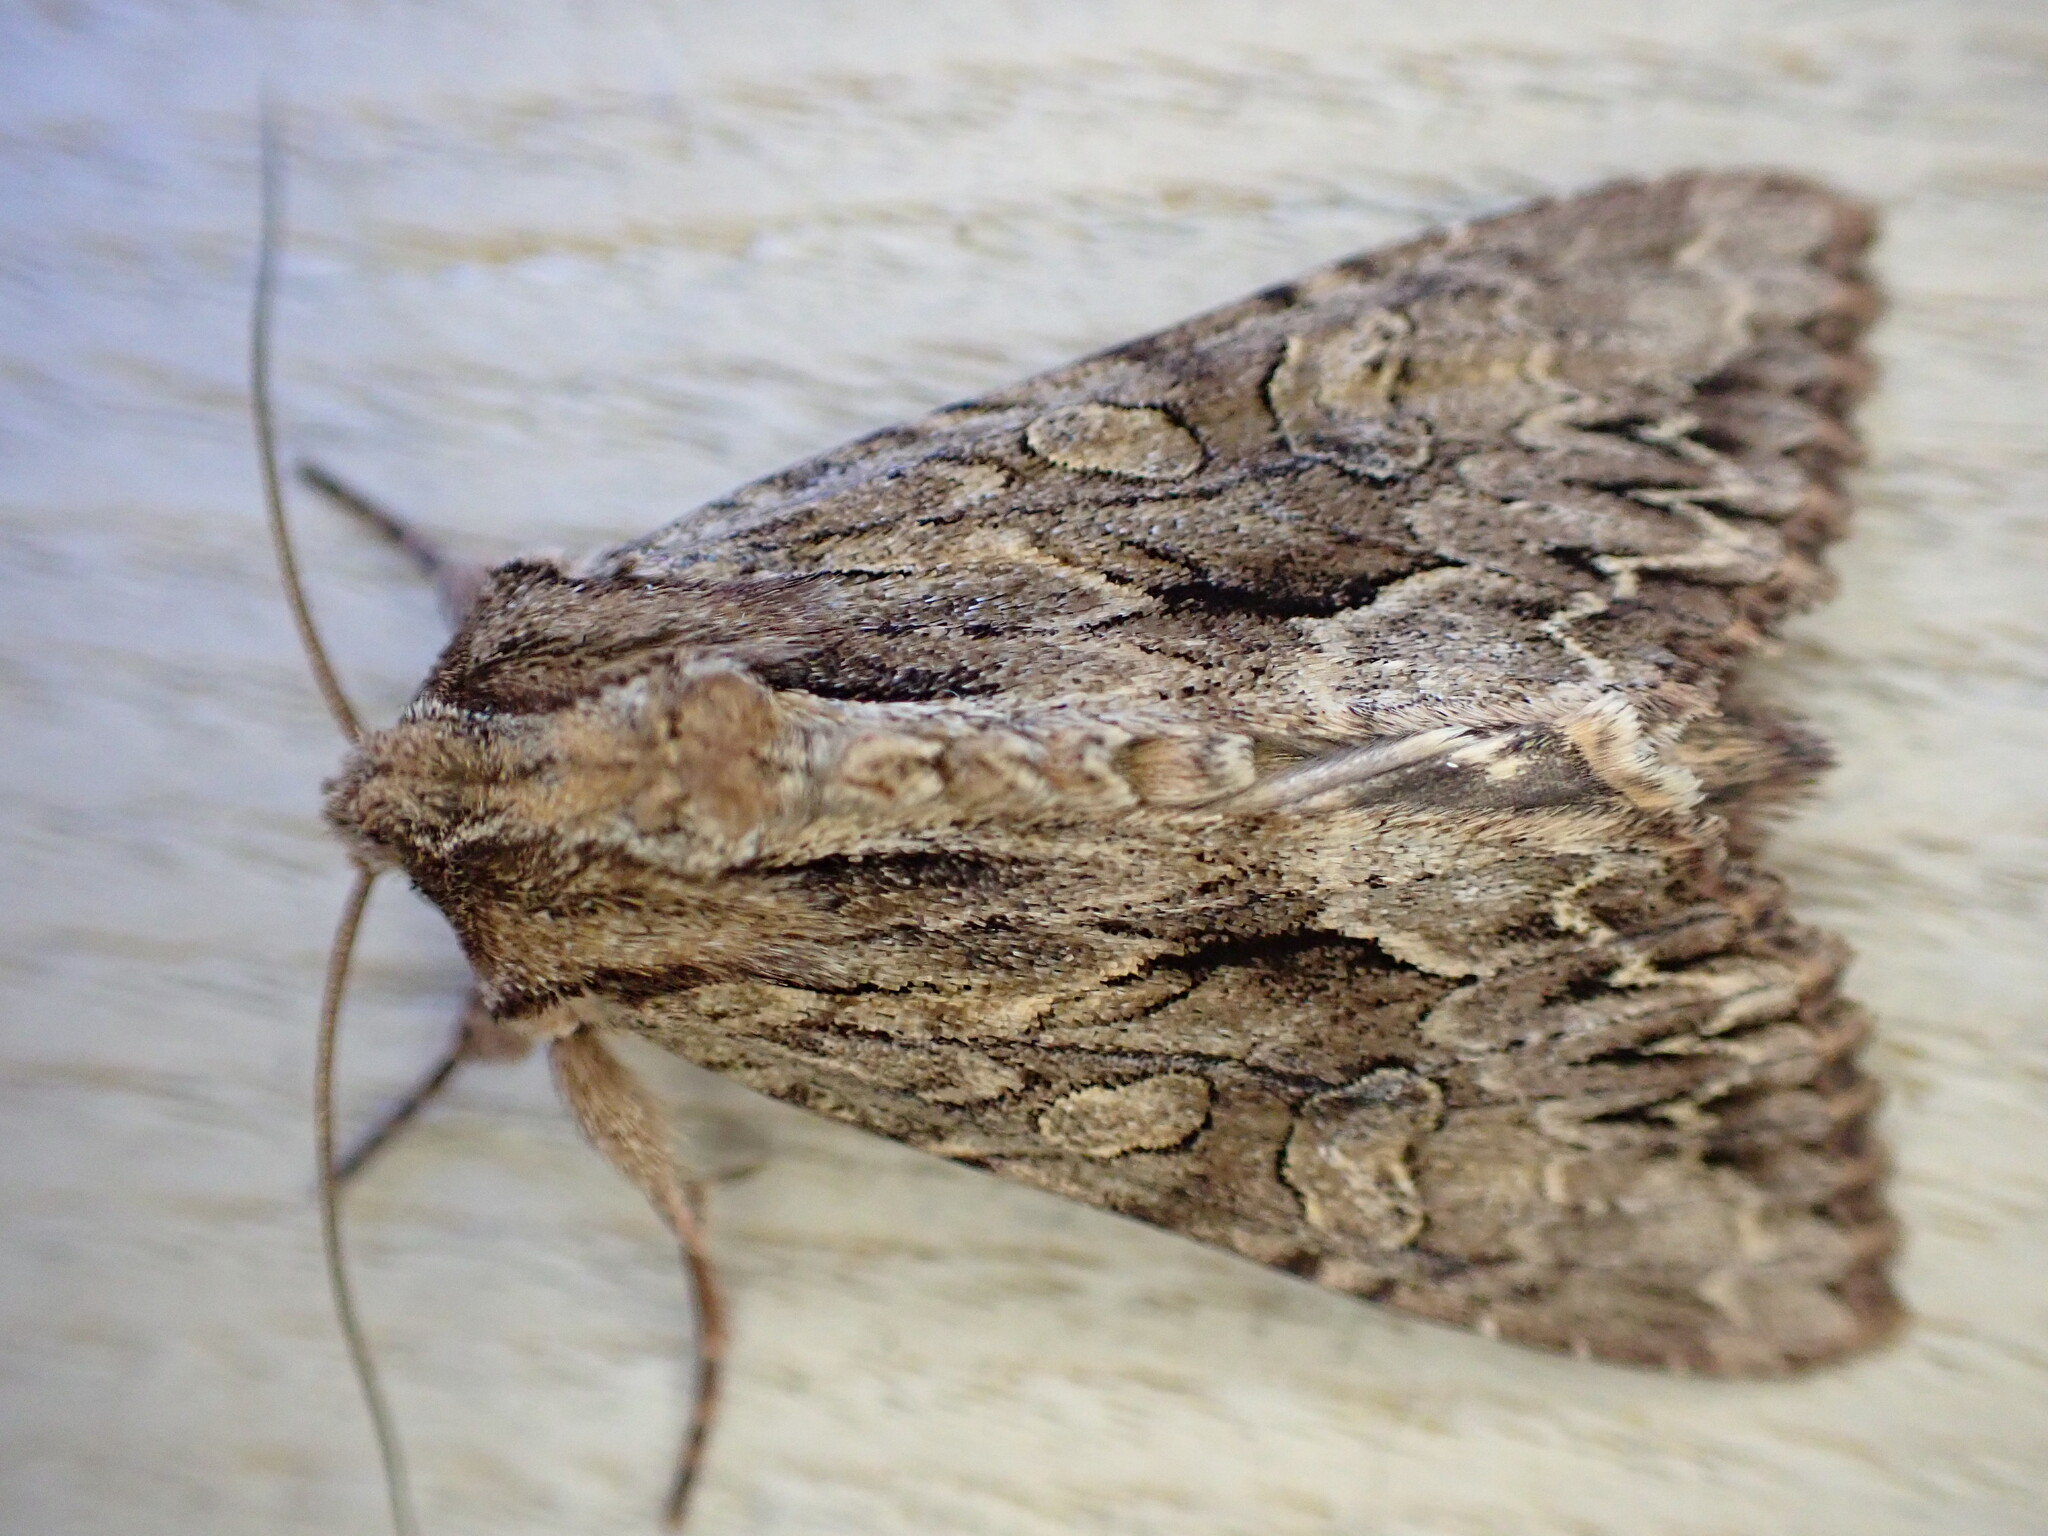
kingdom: Animalia
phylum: Arthropoda
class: Insecta
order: Lepidoptera
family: Noctuidae
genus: Apamea
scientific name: Apamea monoglypha
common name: Dark arches
